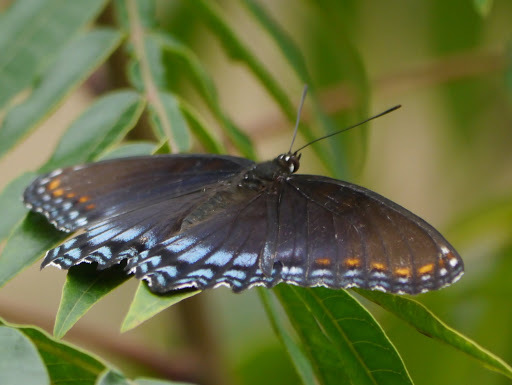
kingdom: Animalia
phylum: Arthropoda
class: Insecta
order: Lepidoptera
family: Nymphalidae
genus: Limenitis
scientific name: Limenitis astyanax
